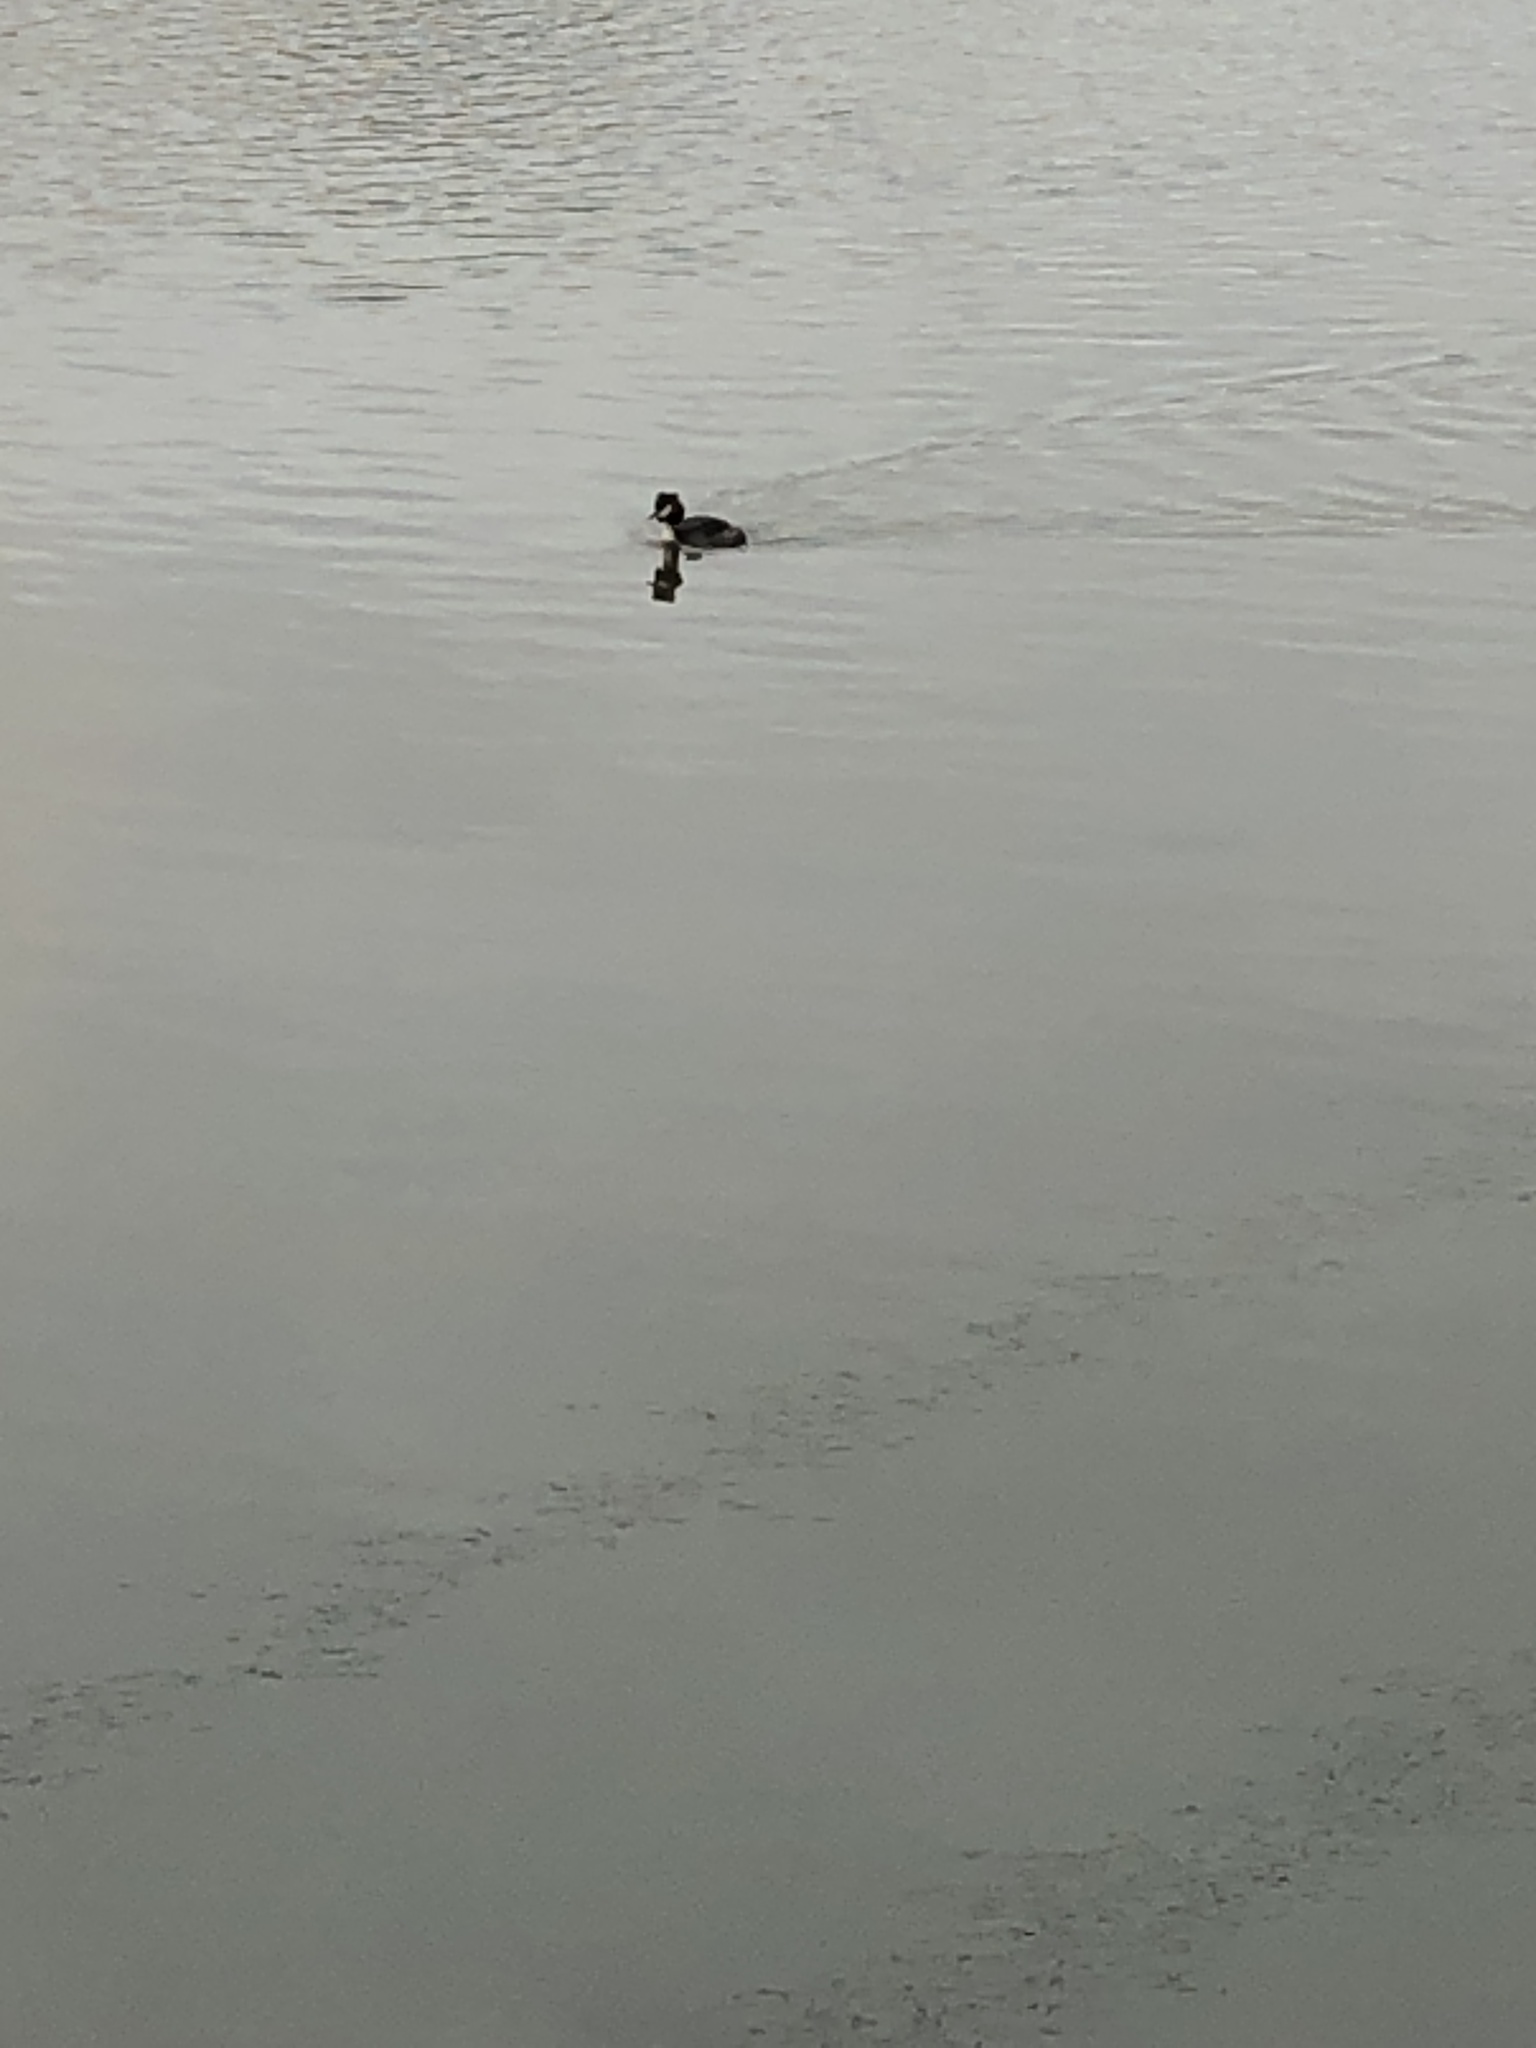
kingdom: Animalia
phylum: Chordata
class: Aves
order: Podicipediformes
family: Podicipedidae
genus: Podiceps
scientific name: Podiceps cristatus
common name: Great crested grebe
